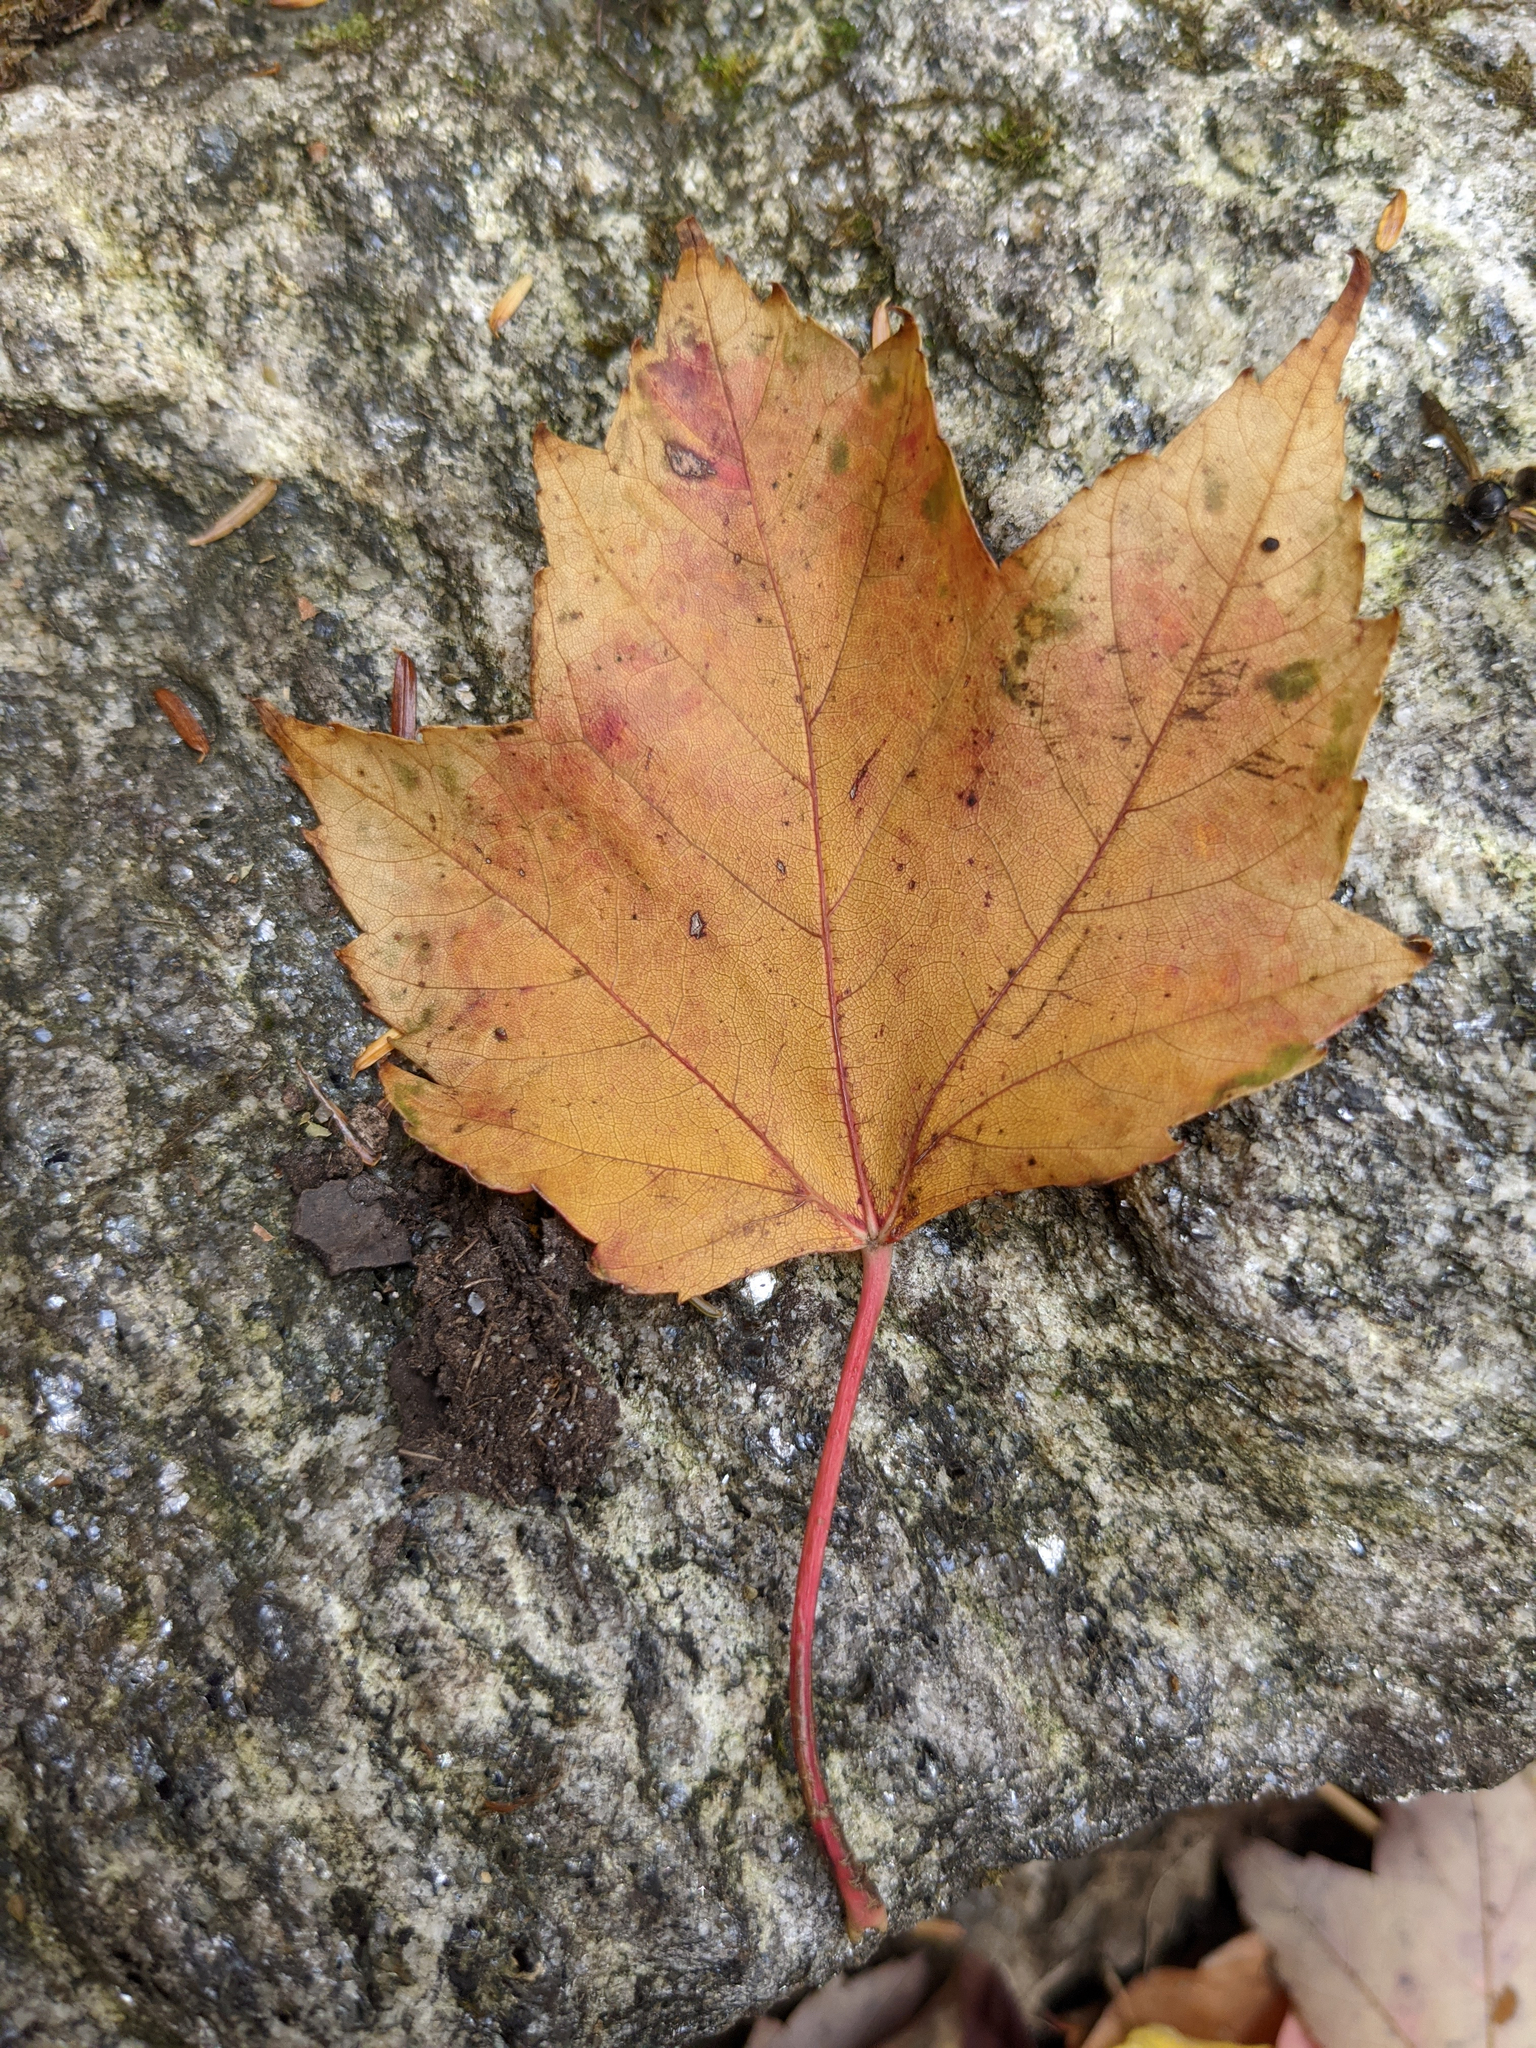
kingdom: Plantae
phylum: Tracheophyta
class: Magnoliopsida
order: Sapindales
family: Sapindaceae
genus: Acer
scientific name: Acer rubrum
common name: Red maple
